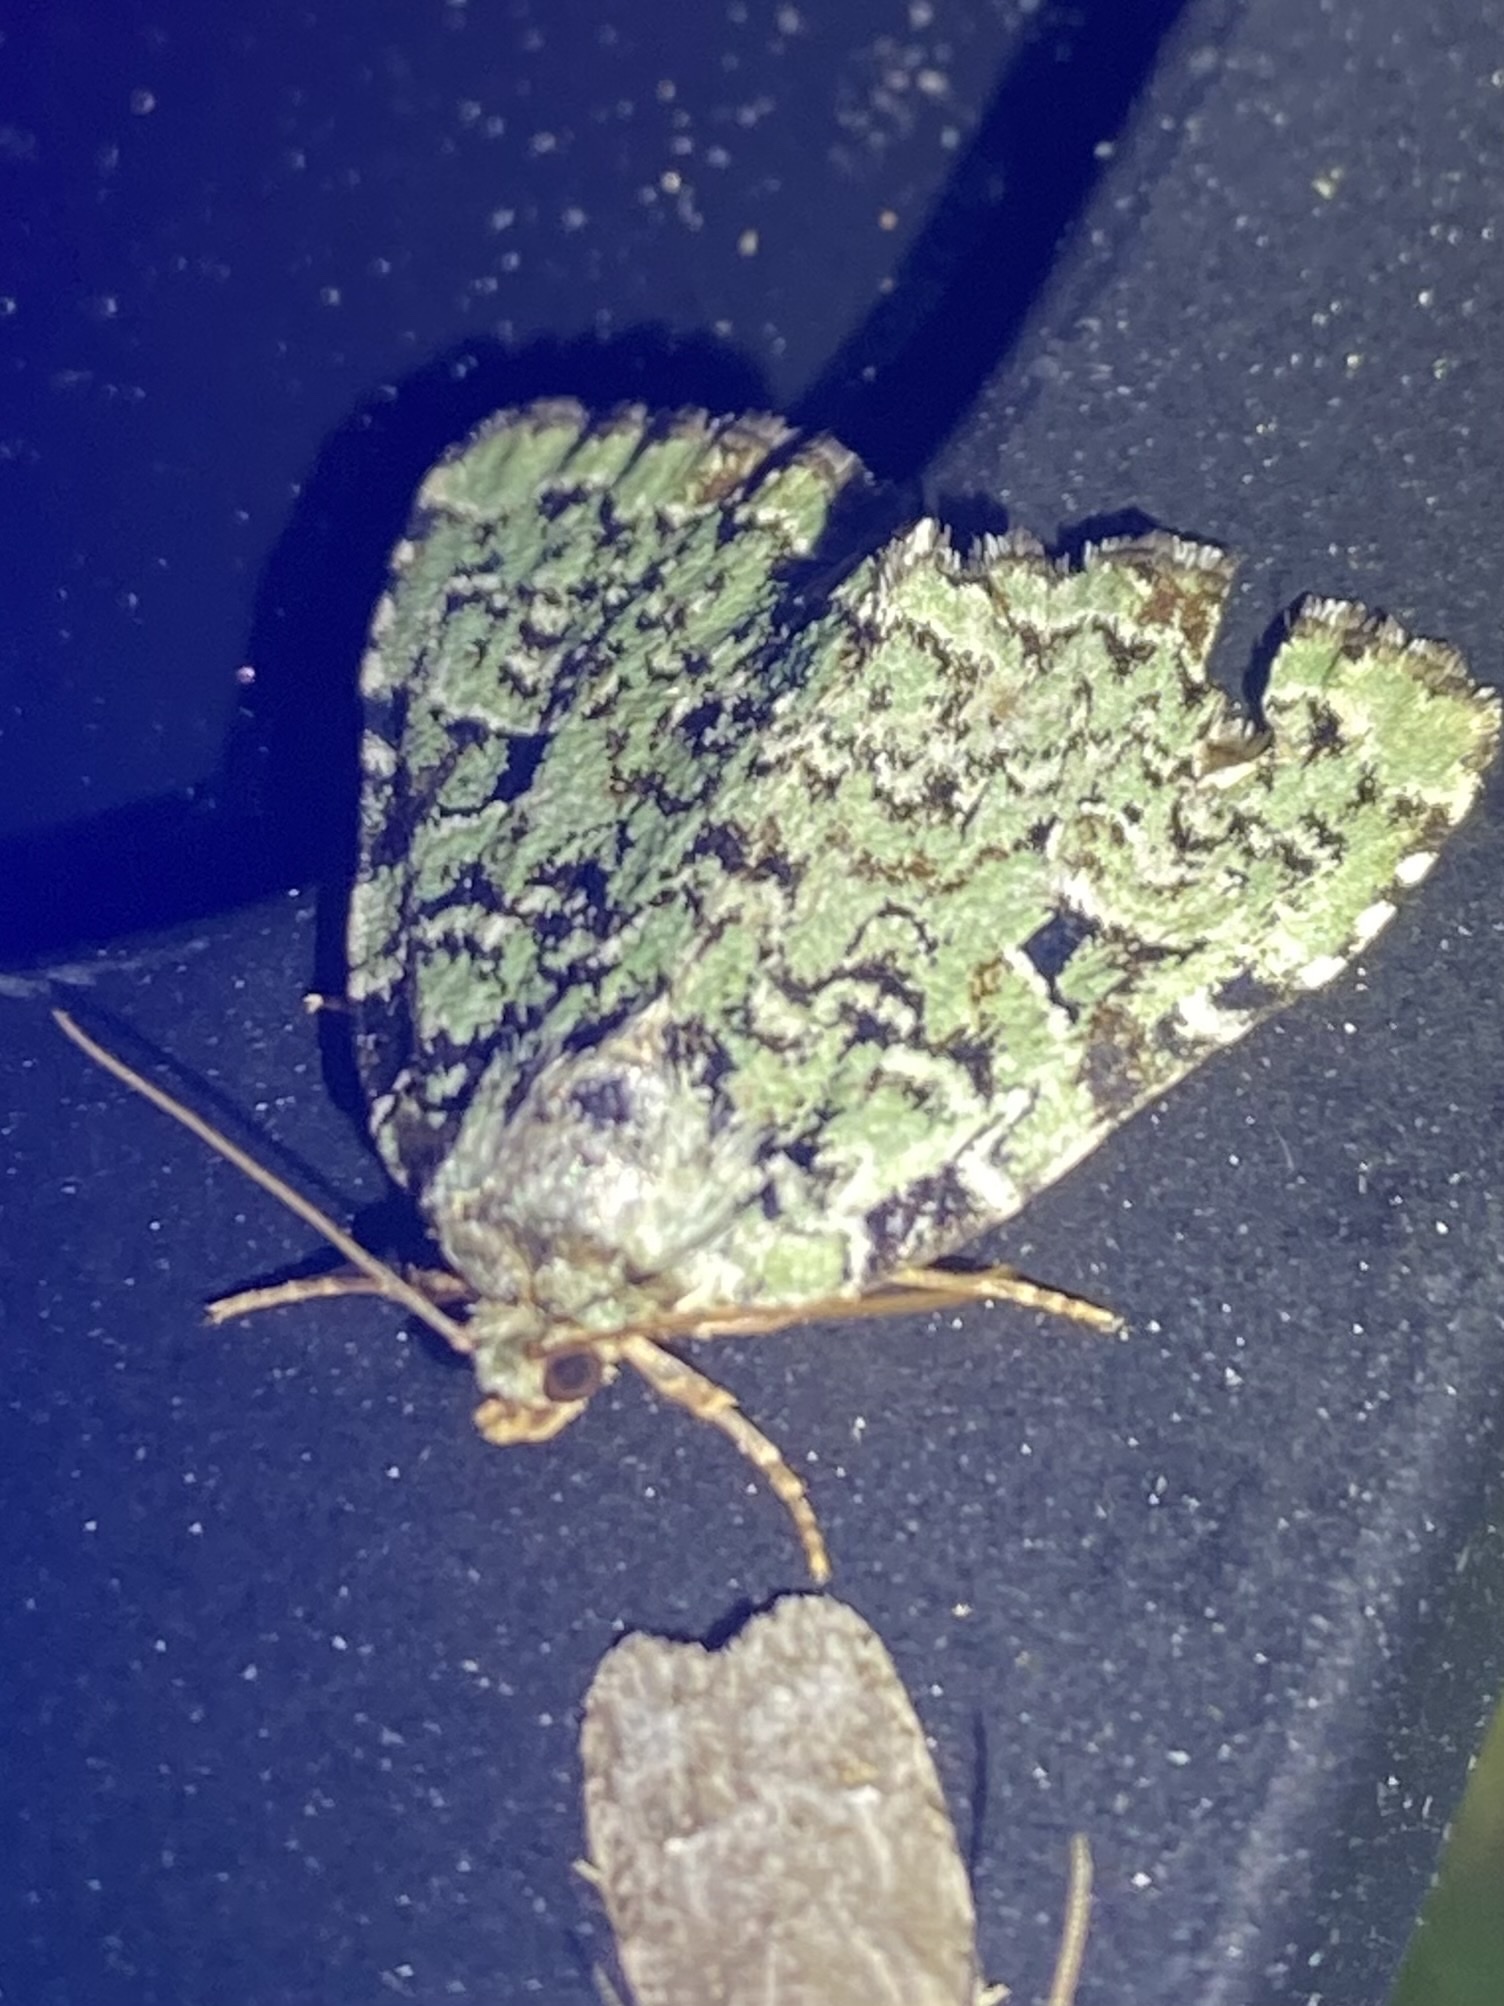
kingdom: Animalia
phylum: Arthropoda
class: Insecta
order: Lepidoptera
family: Noctuidae
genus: Leuconycta
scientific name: Leuconycta diphteroides
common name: Green leuconycta moth
